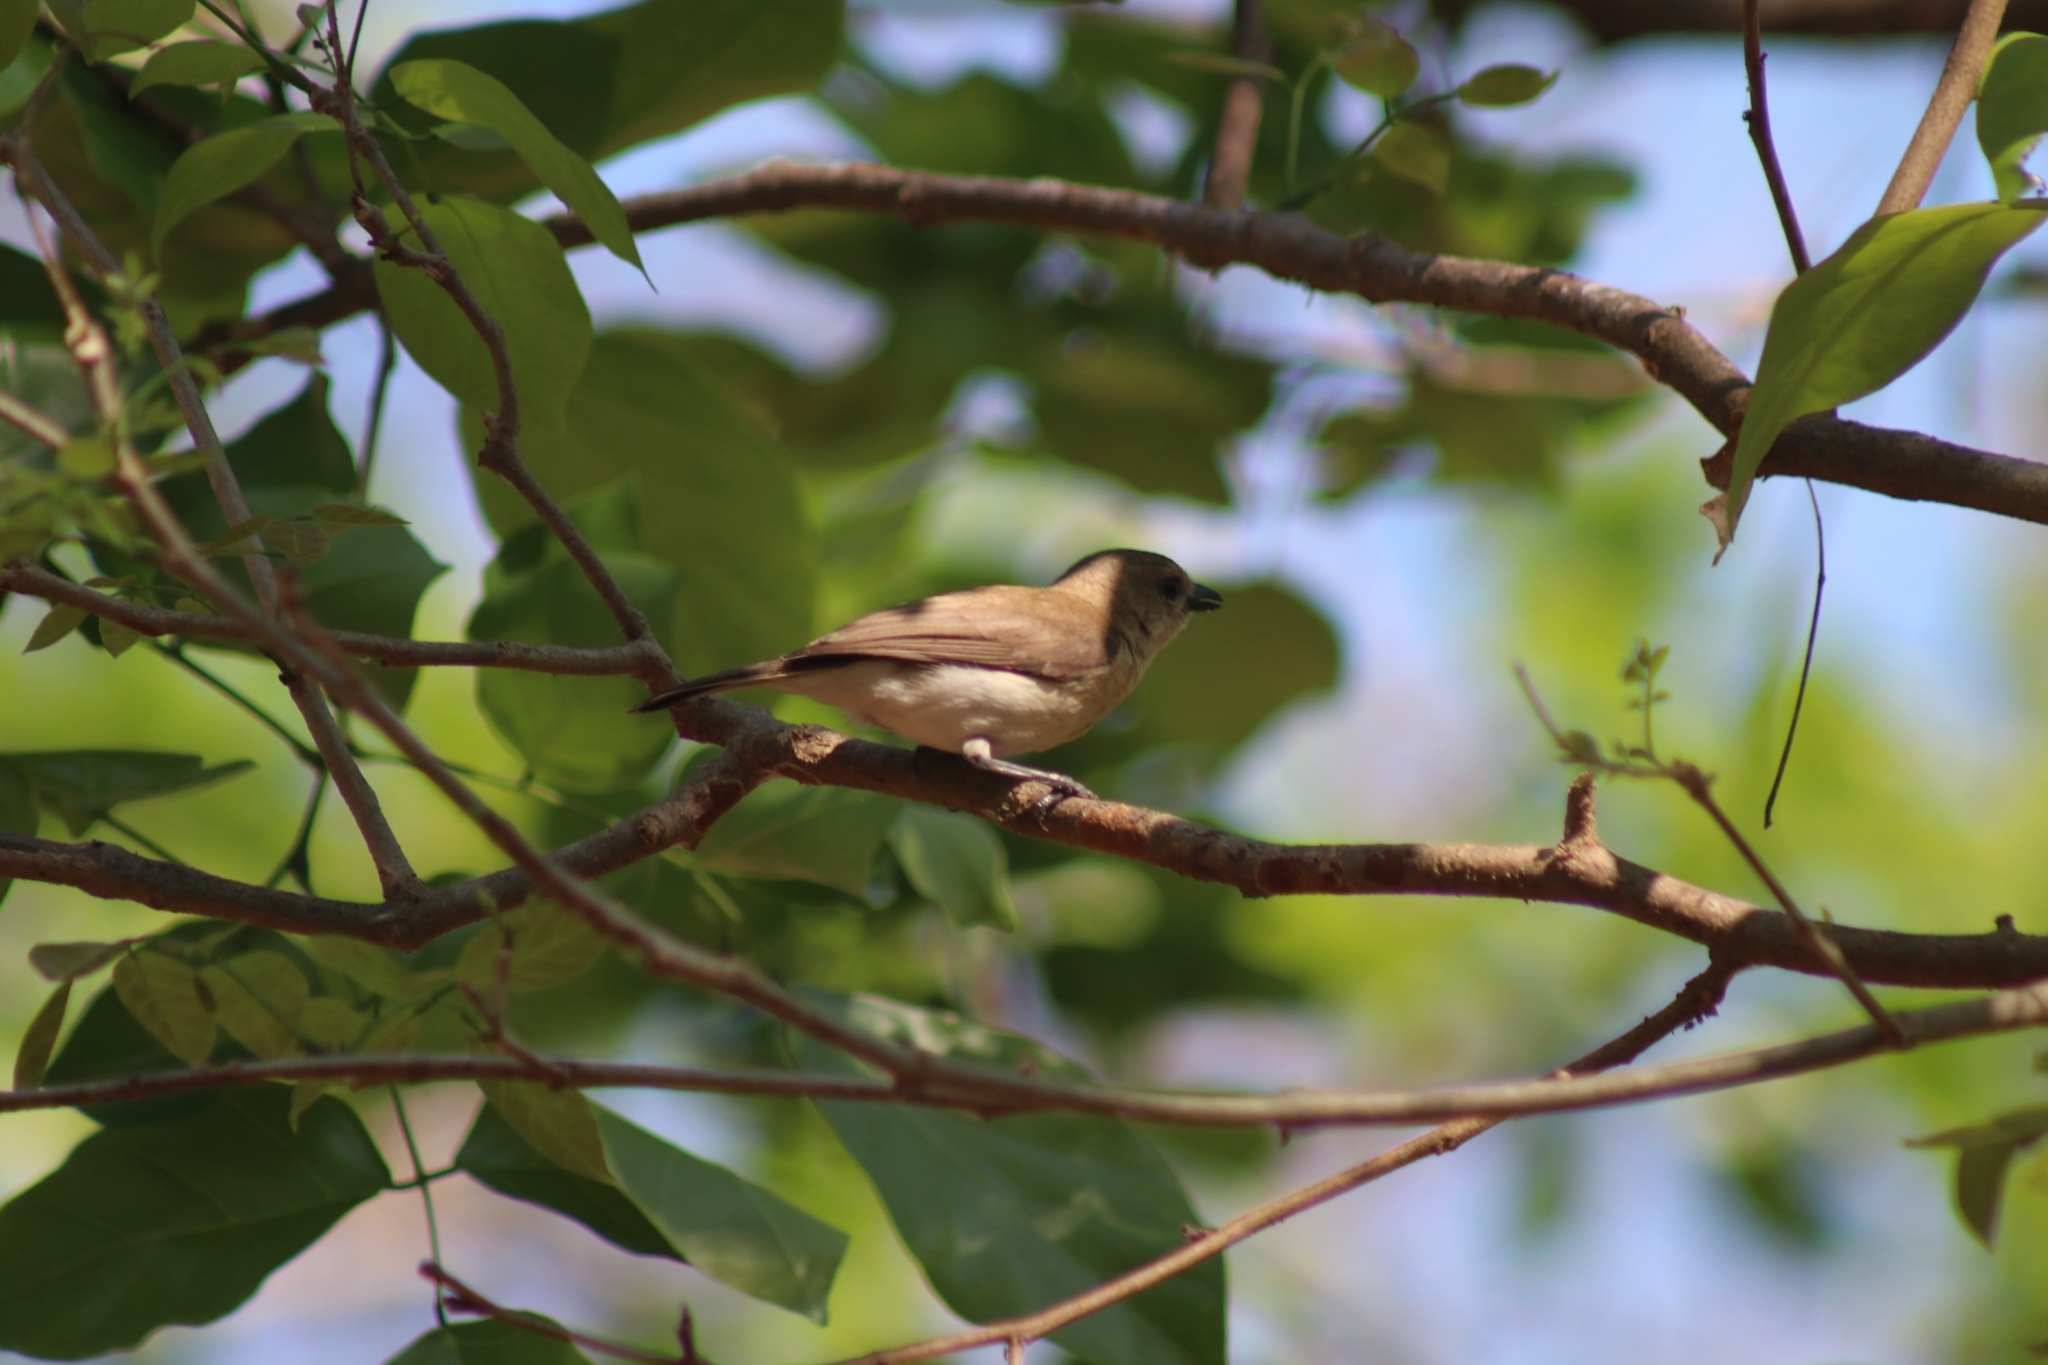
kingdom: Animalia
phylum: Chordata
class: Aves
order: Passeriformes
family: Pachycephalidae
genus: Pachycephala
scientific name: Pachycephala simplex
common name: Grey whistler
